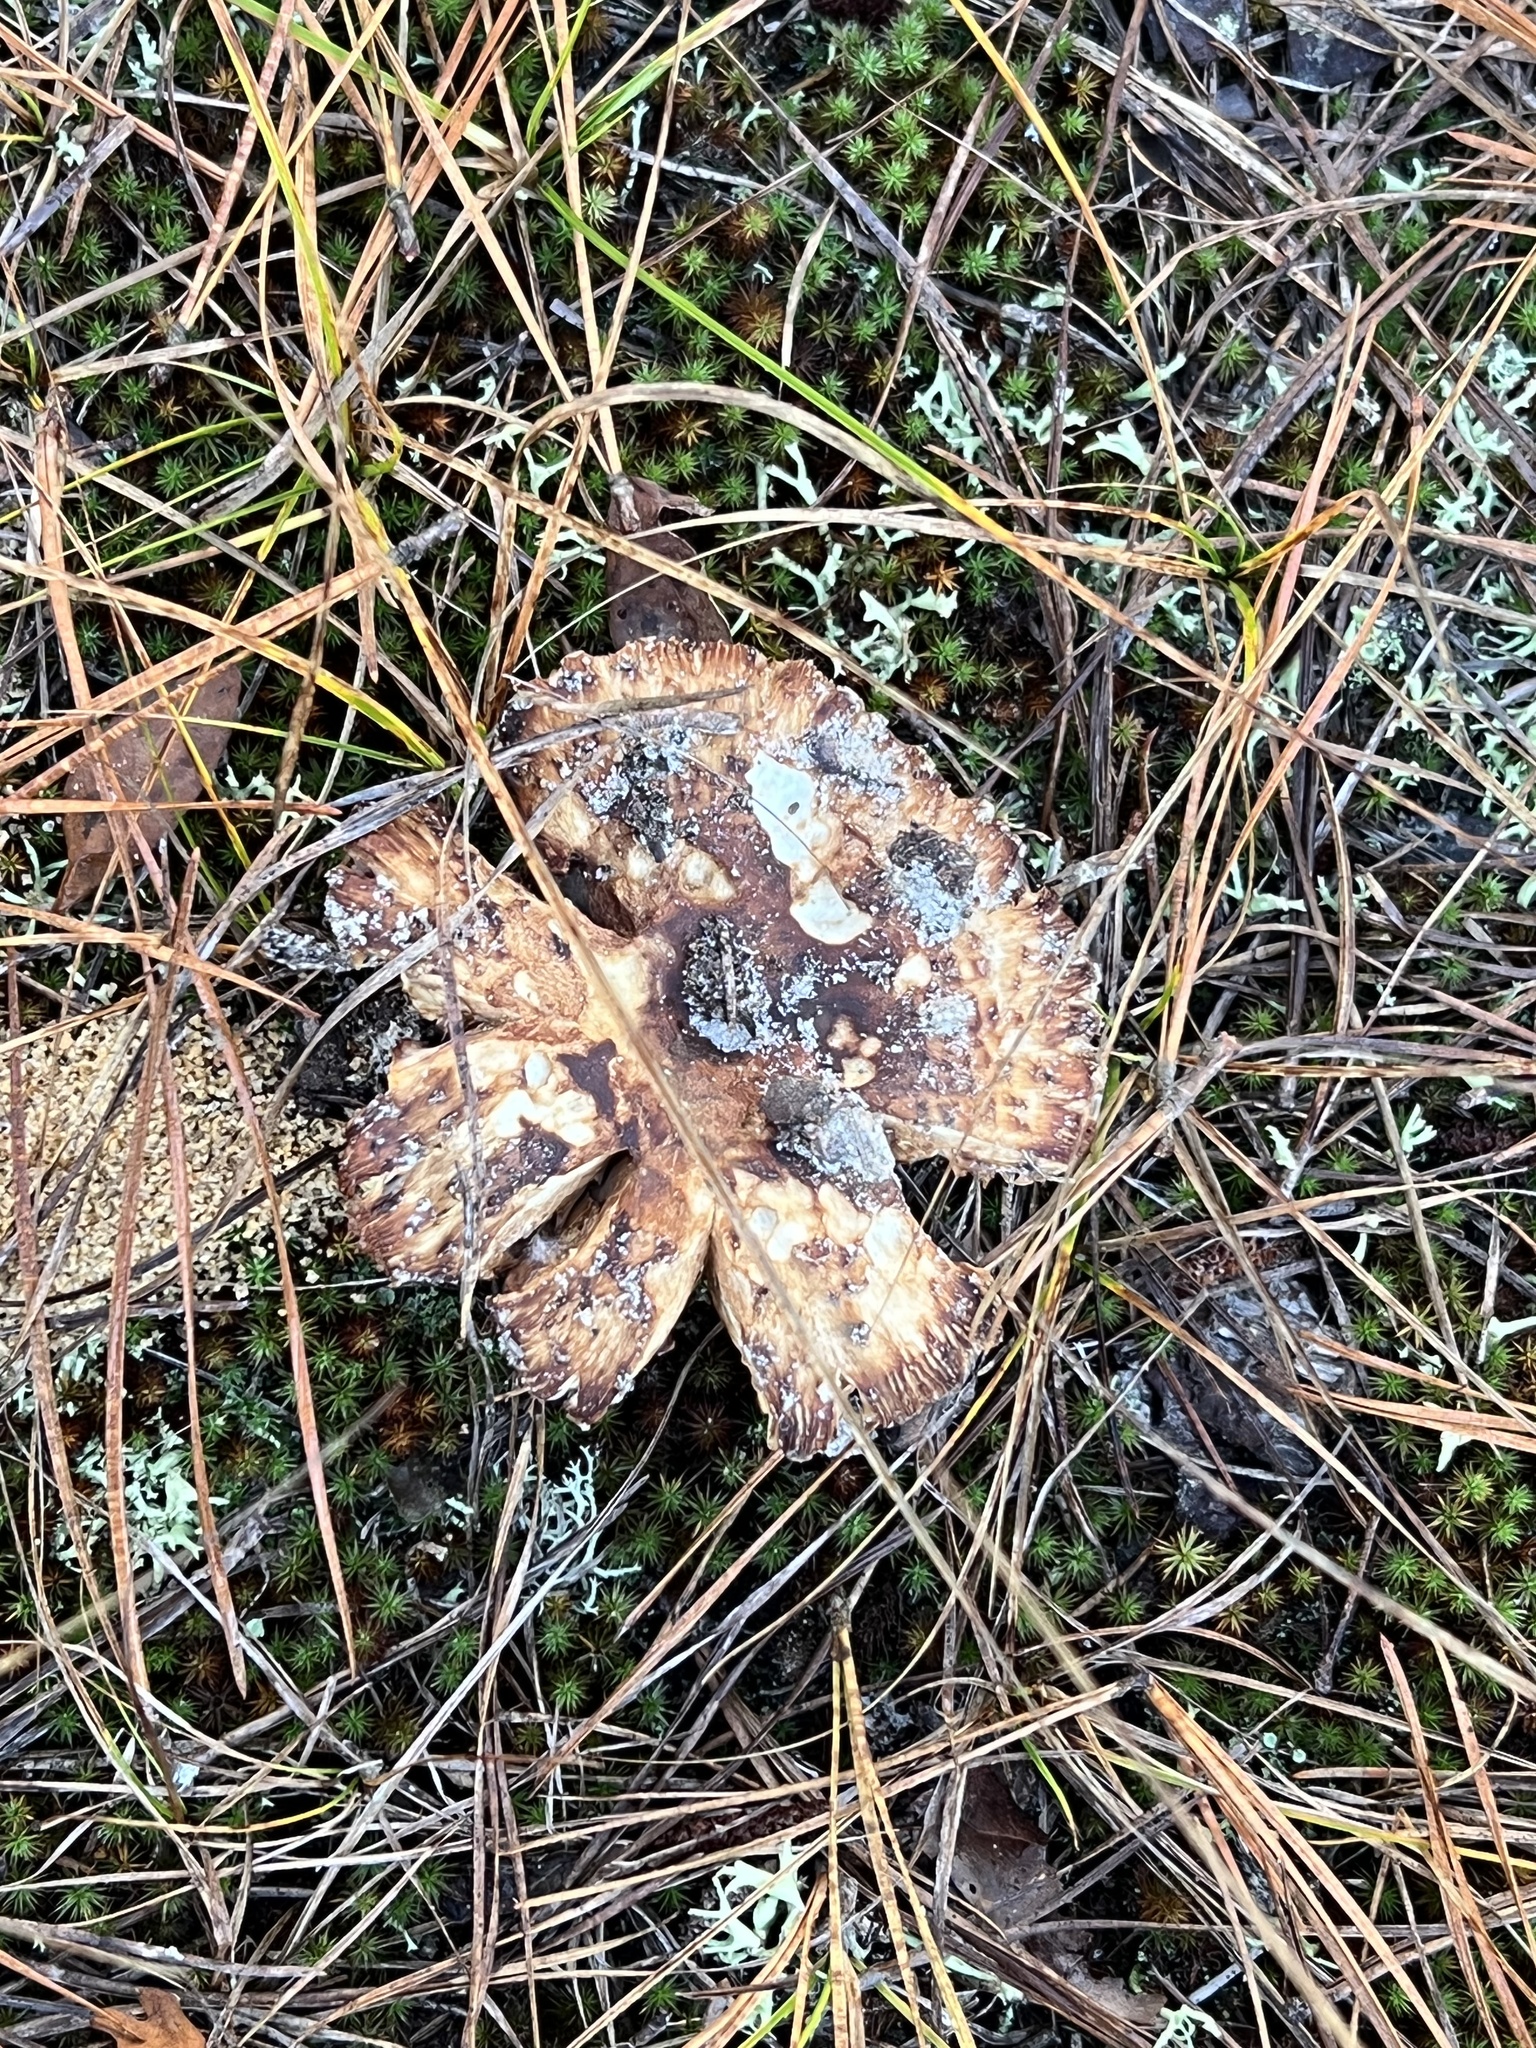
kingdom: Fungi
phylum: Basidiomycota
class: Agaricomycetes
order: Russulales
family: Russulaceae
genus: Russula
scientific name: Russula ventricosipes
